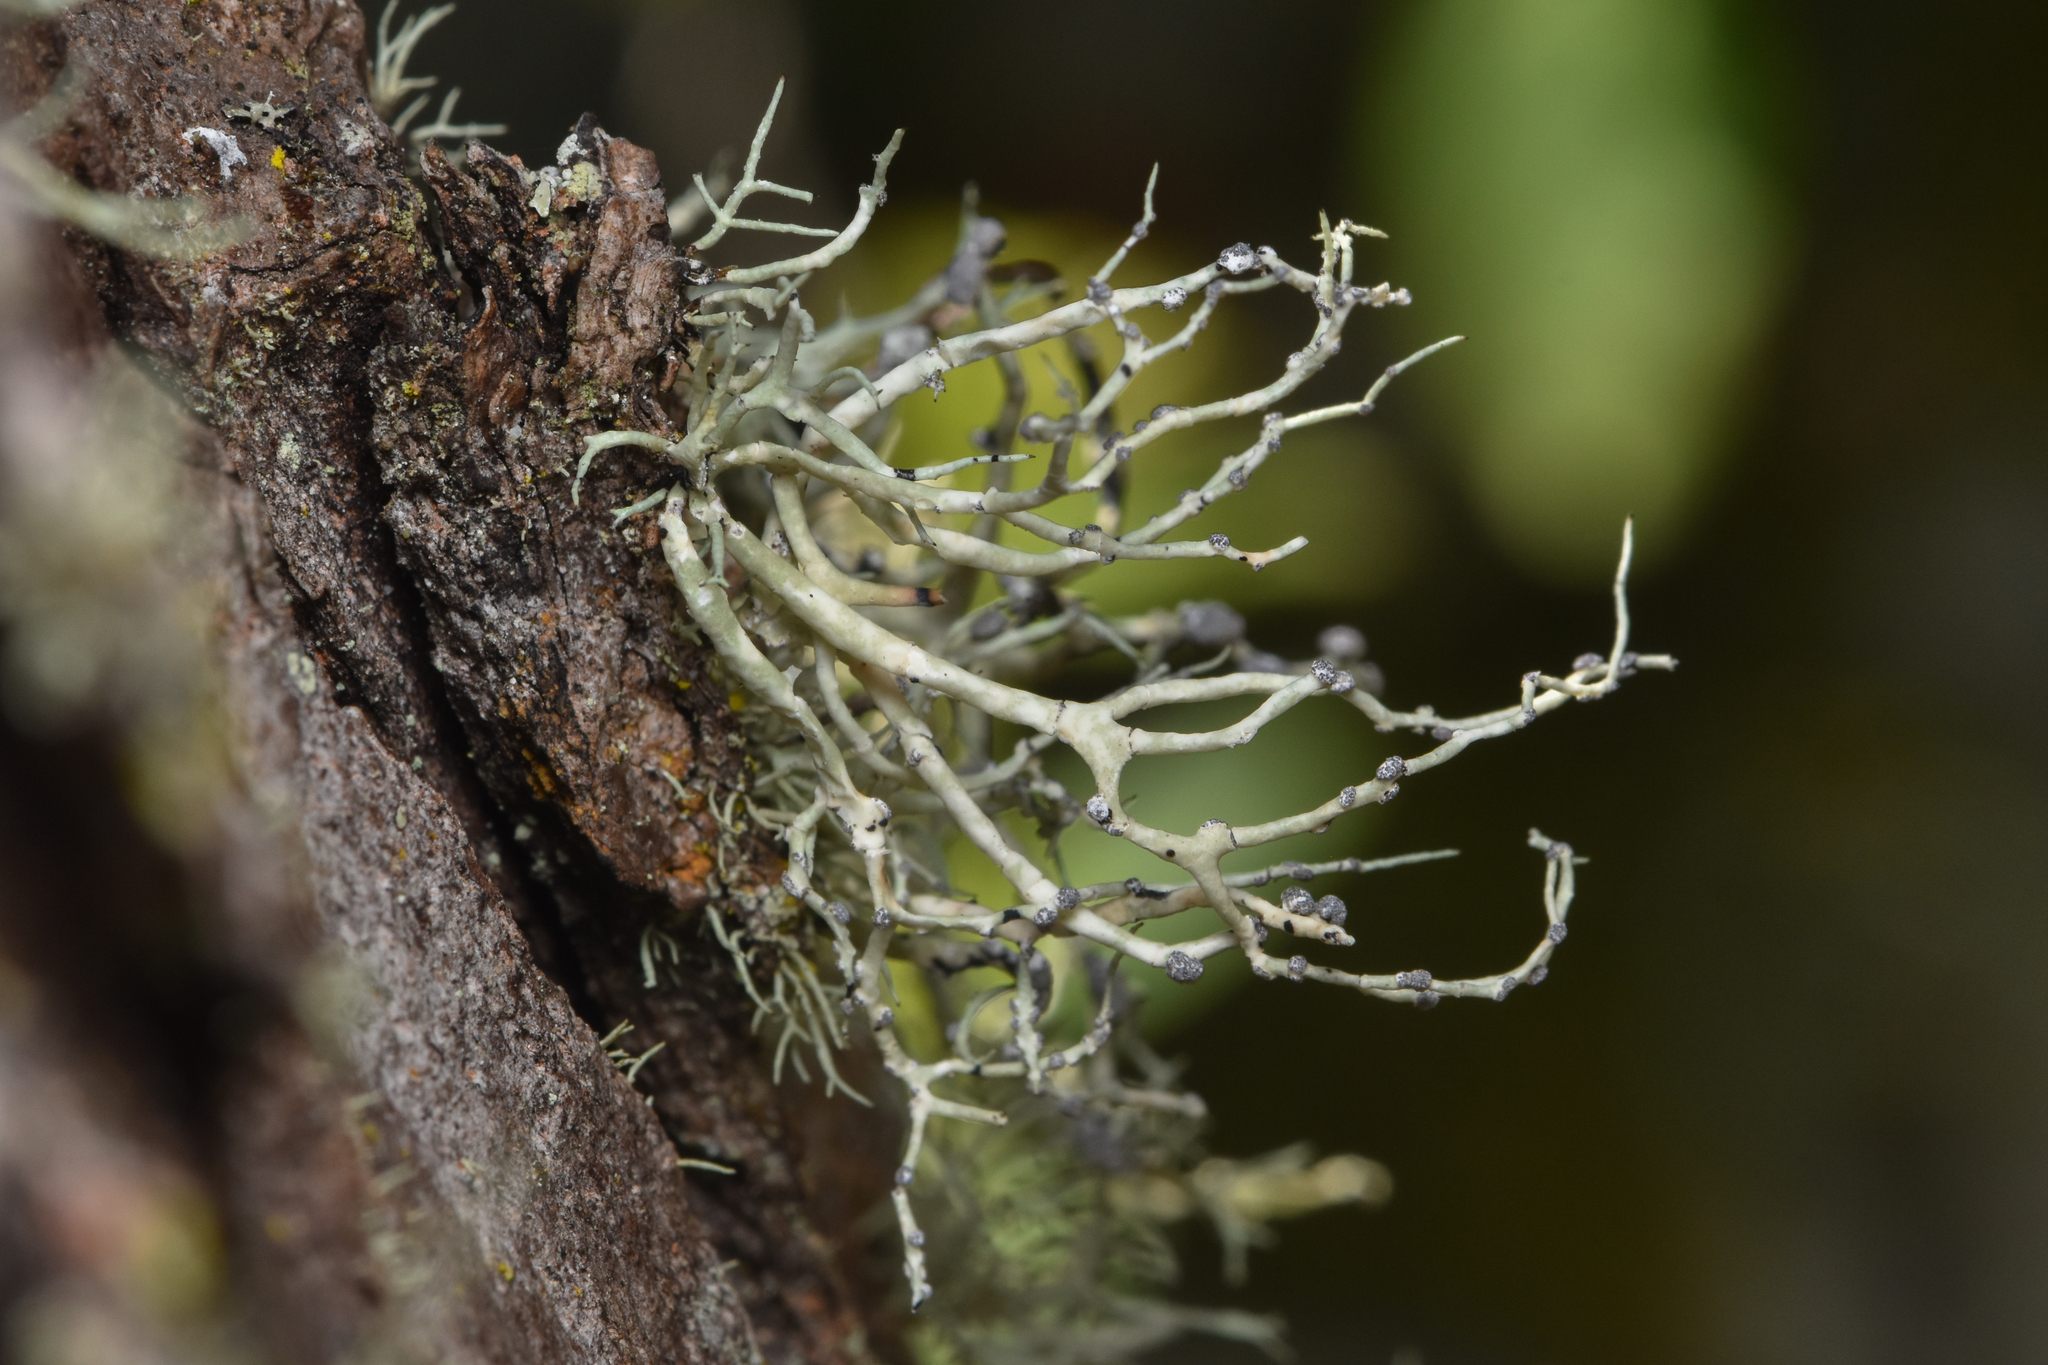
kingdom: Fungi
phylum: Ascomycota
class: Lecanoromycetes
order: Lecanorales
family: Ramalinaceae
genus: Niebla
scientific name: Niebla cephalota
